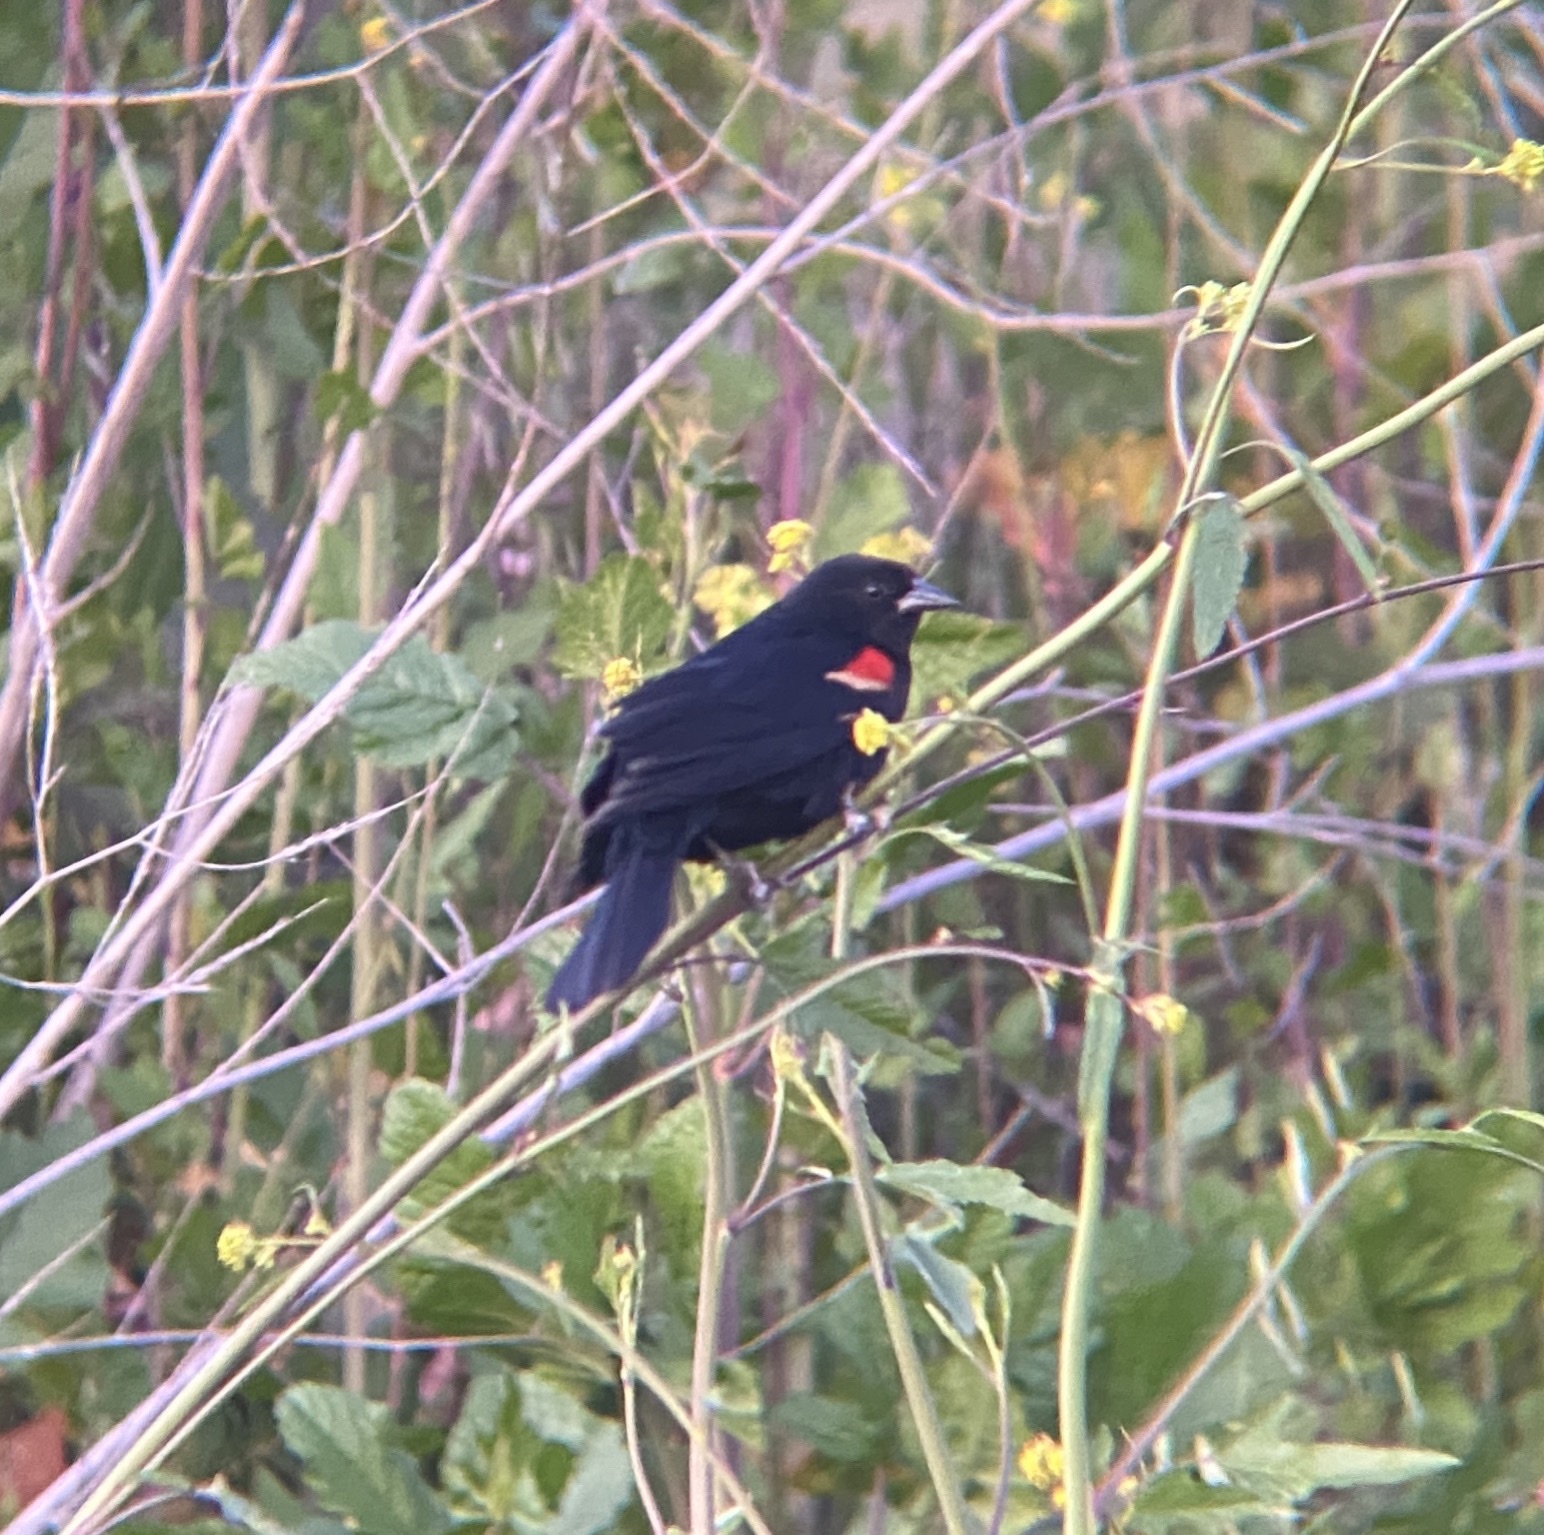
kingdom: Animalia
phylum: Chordata
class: Aves
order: Passeriformes
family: Icteridae
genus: Agelaius
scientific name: Agelaius phoeniceus
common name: Red-winged blackbird
